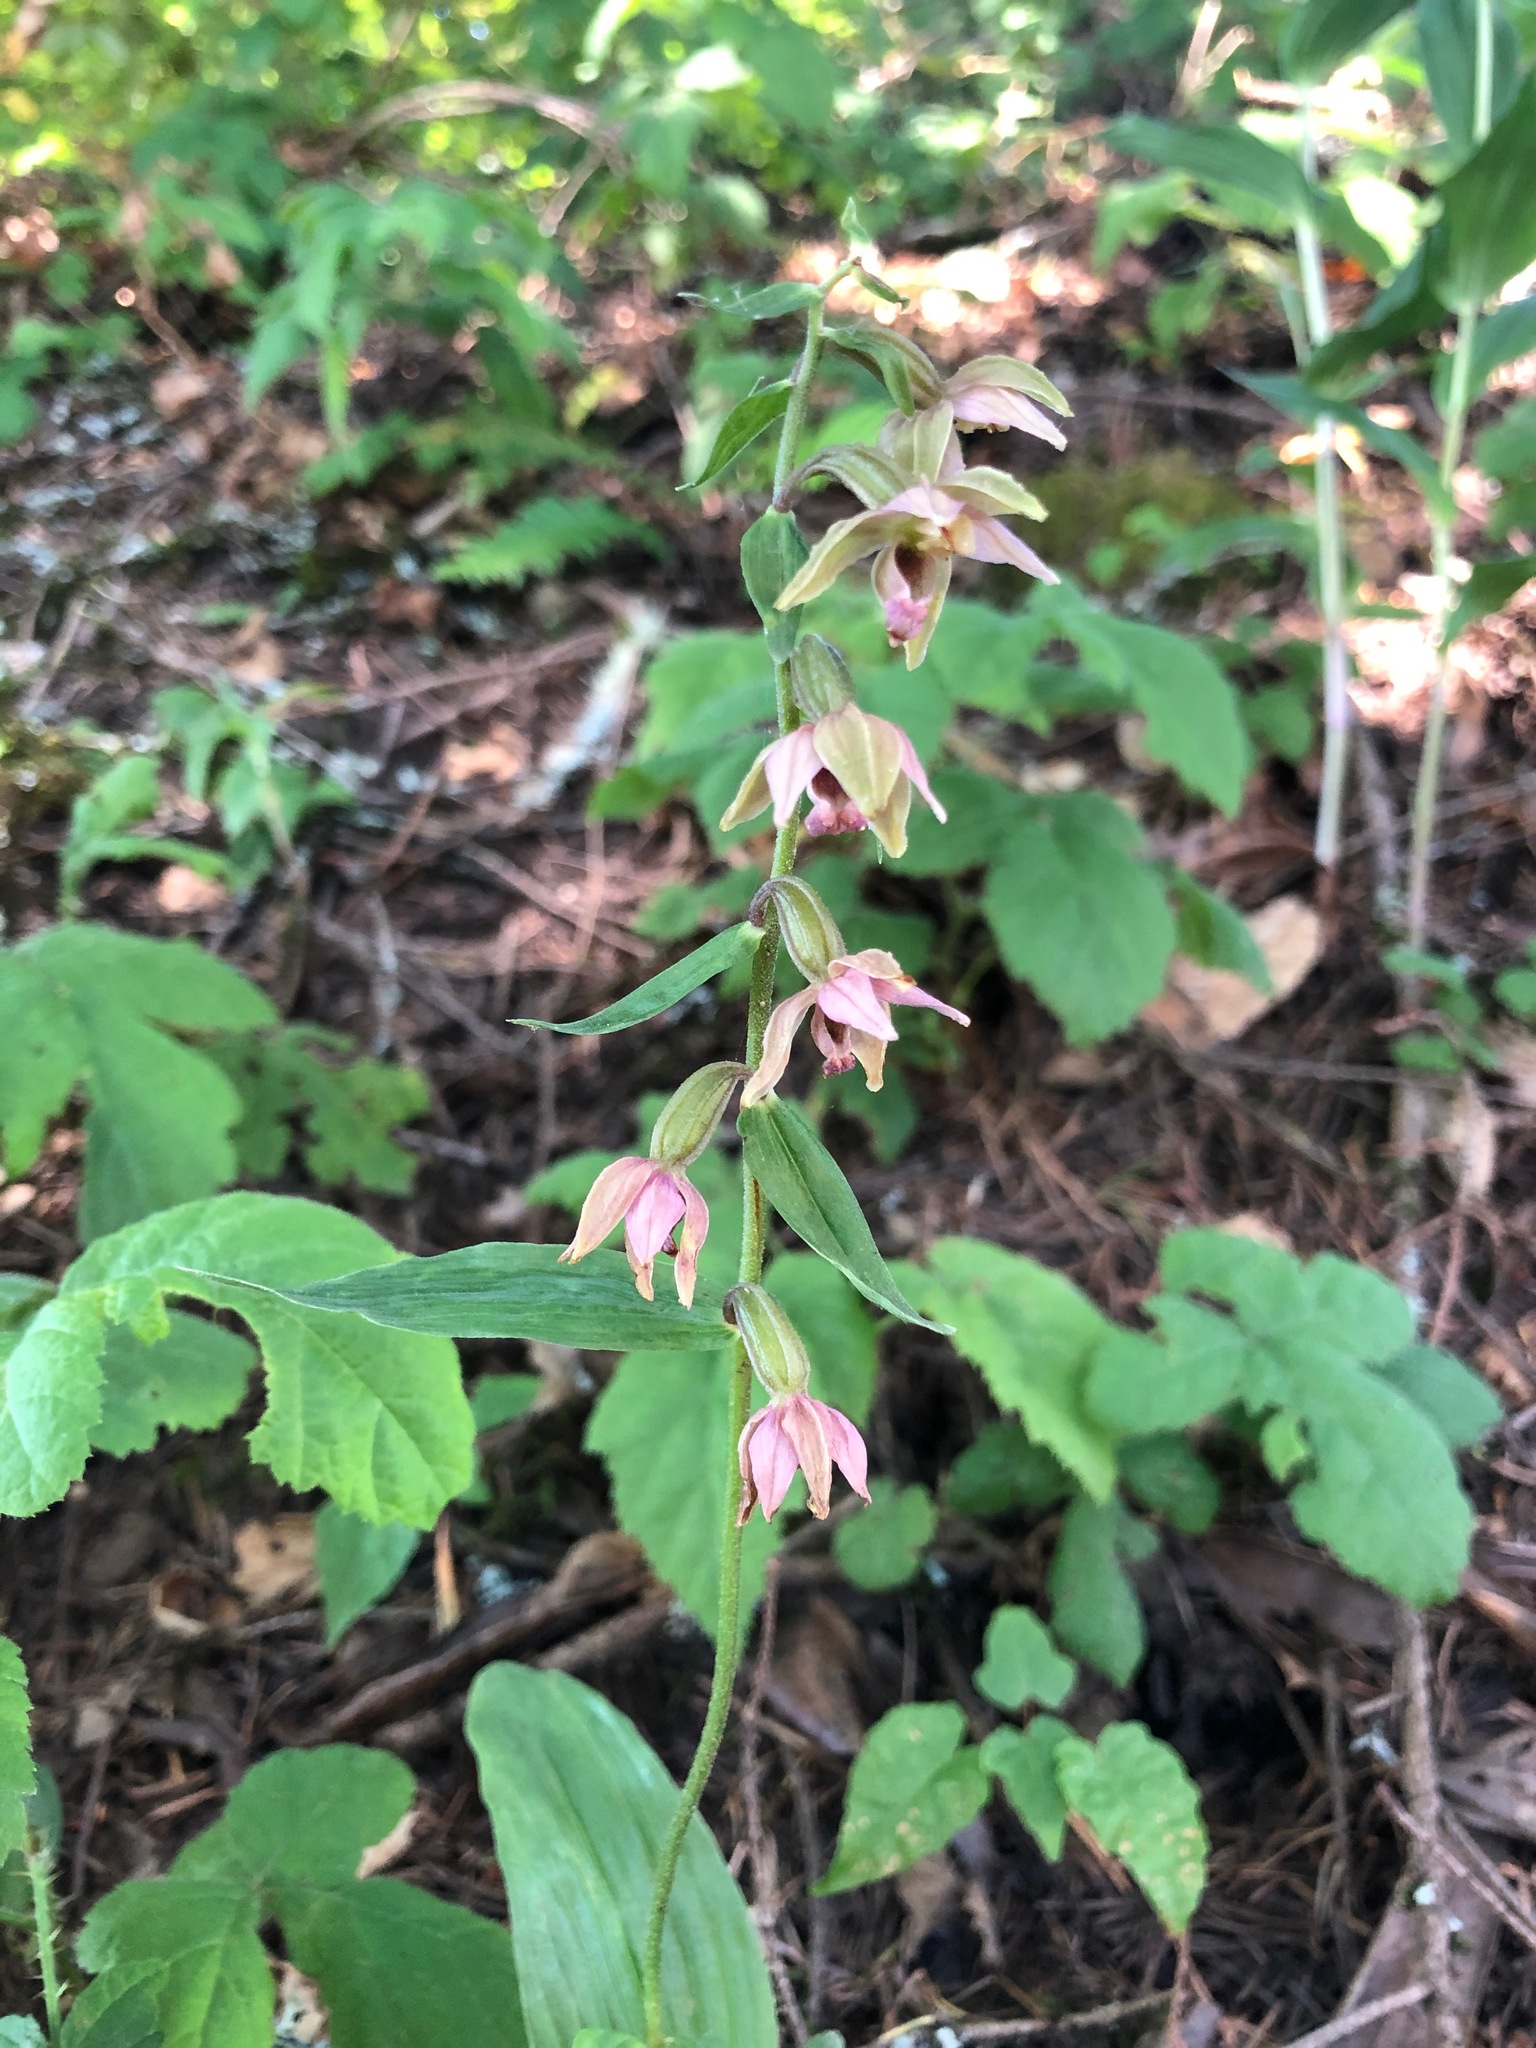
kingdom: Plantae
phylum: Tracheophyta
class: Liliopsida
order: Asparagales
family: Orchidaceae
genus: Epipactis
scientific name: Epipactis helleborine
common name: Broad-leaved helleborine
